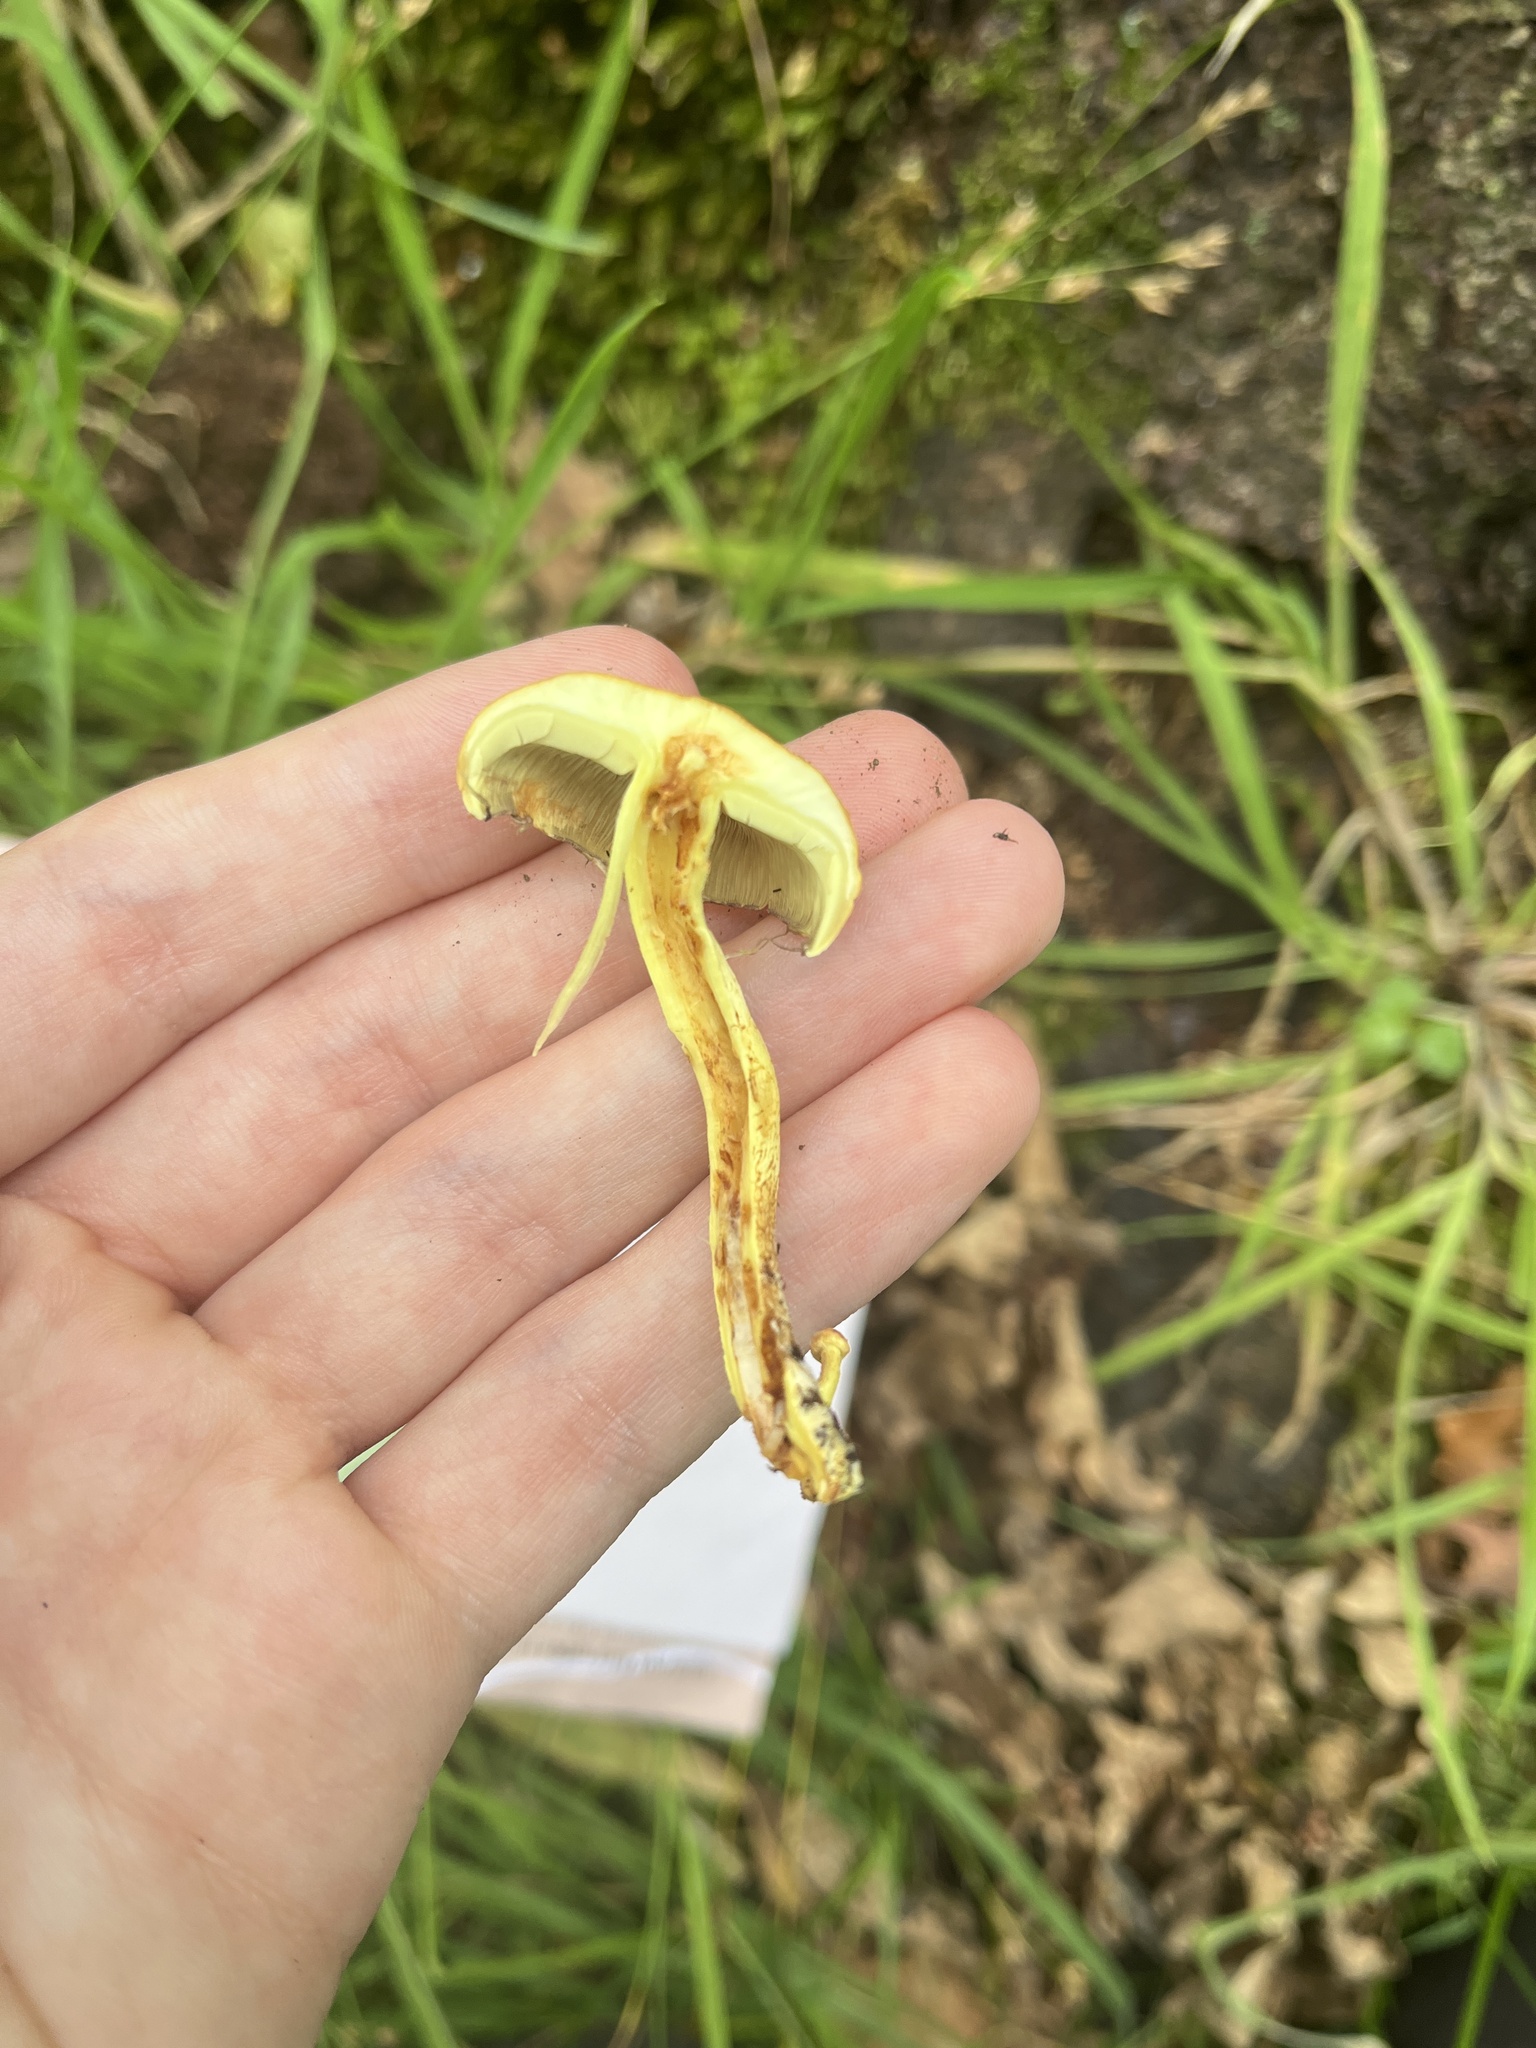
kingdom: Fungi
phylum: Basidiomycota
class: Agaricomycetes
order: Agaricales
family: Strophariaceae
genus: Hypholoma
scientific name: Hypholoma fasciculare
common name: Sulphur tuft
